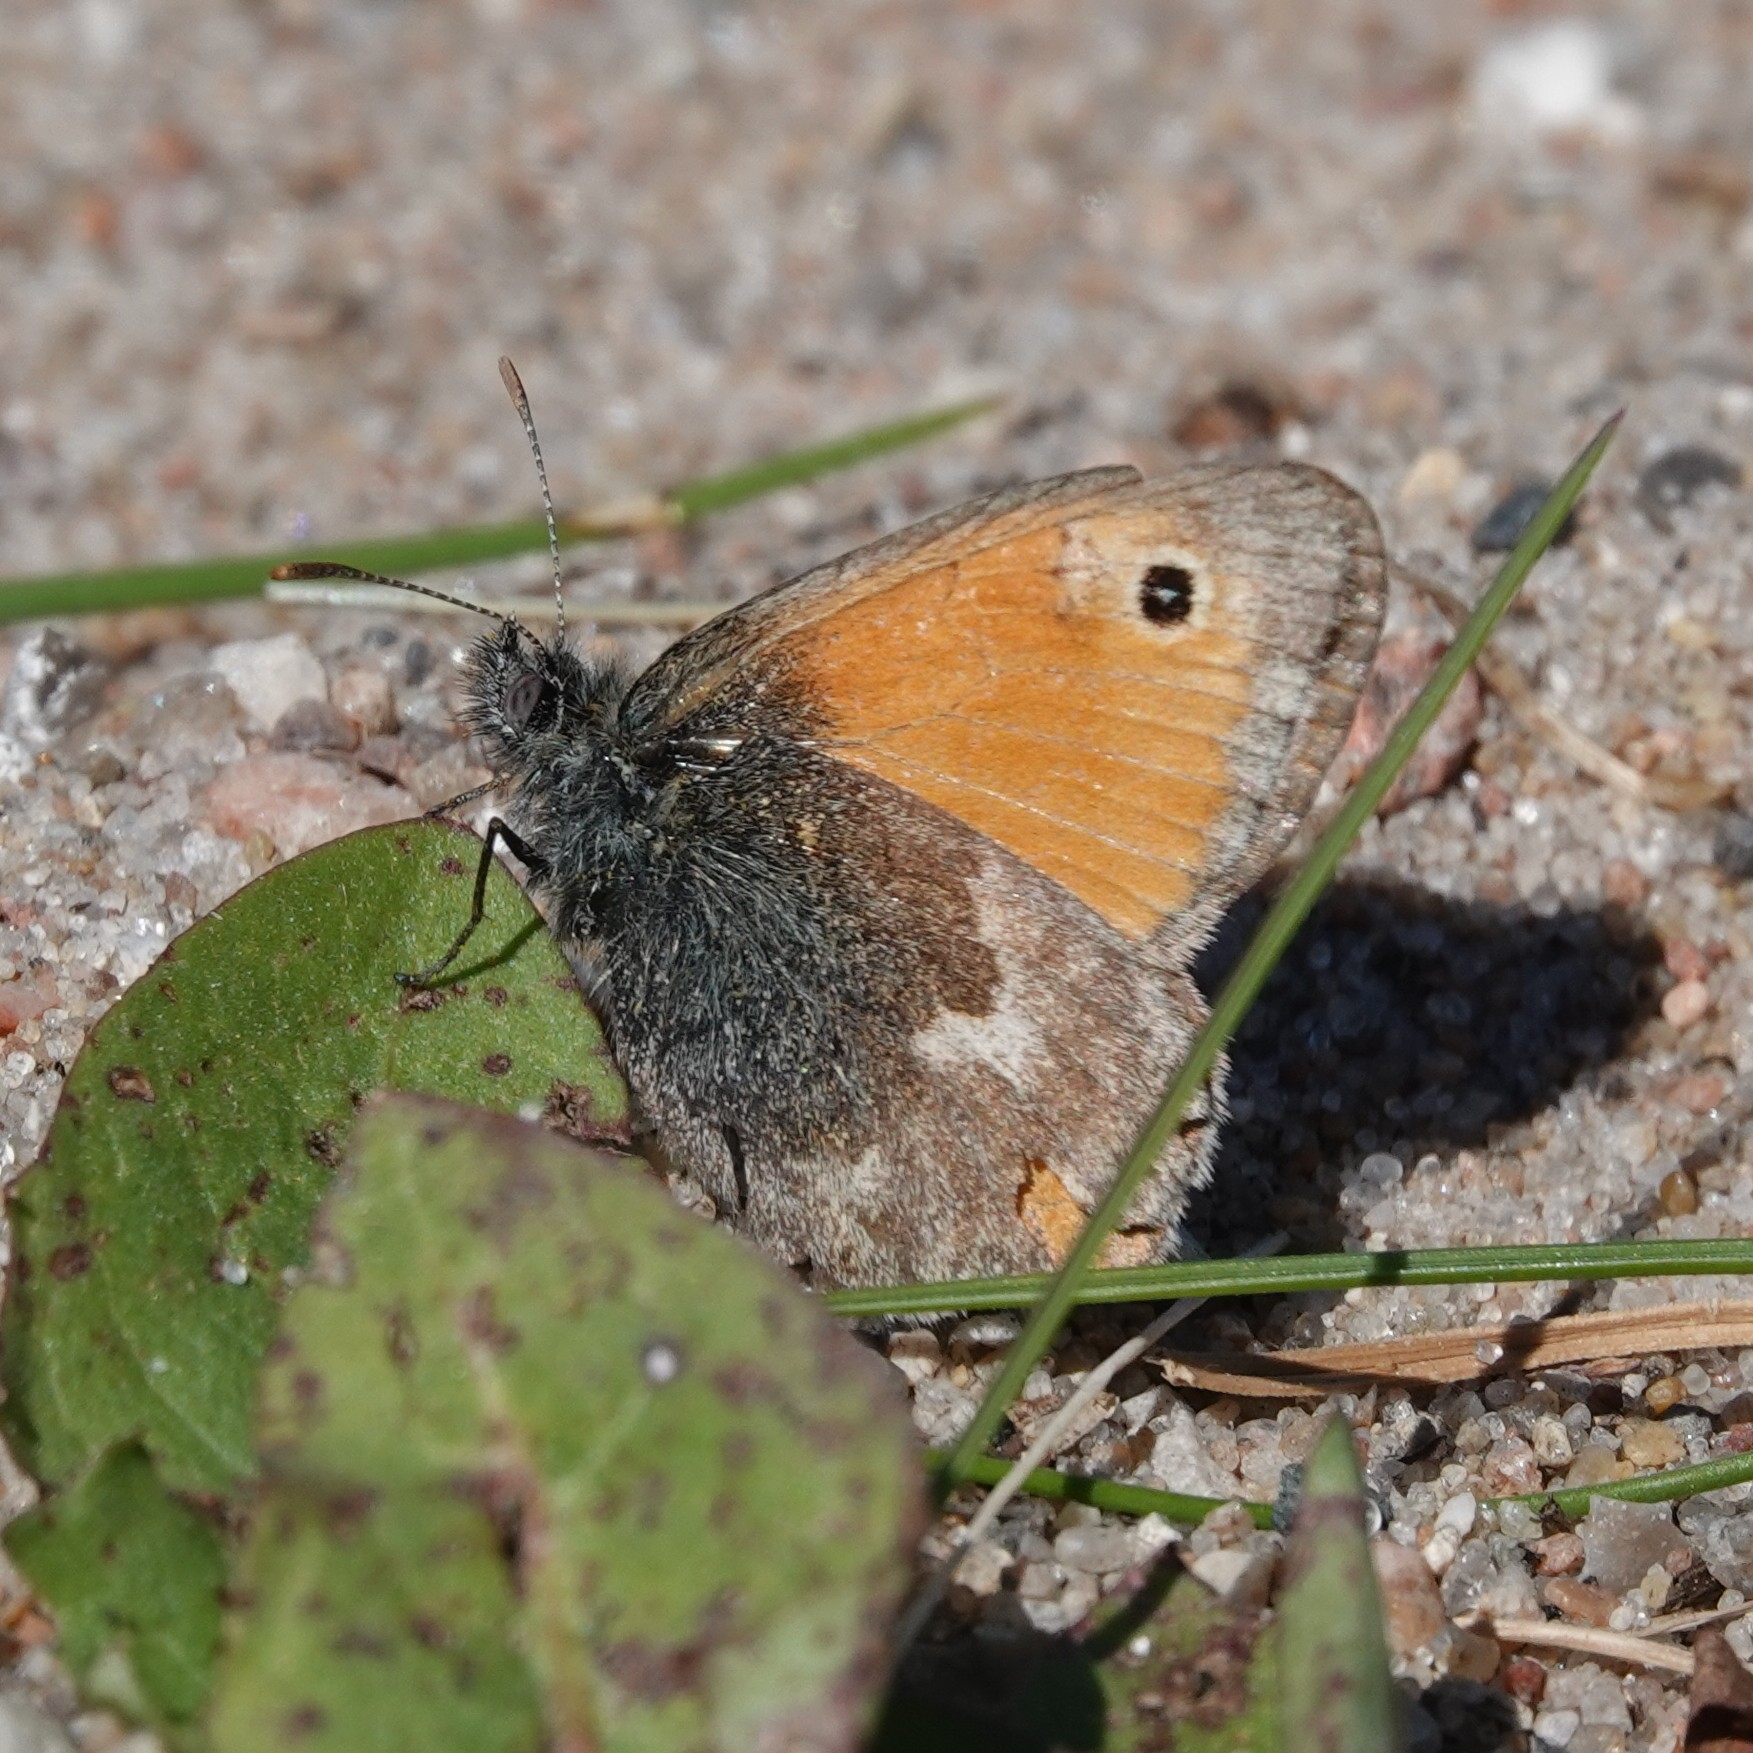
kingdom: Animalia
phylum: Arthropoda
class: Insecta
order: Lepidoptera
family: Nymphalidae
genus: Coenonympha
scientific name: Coenonympha pamphilus
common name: Small heath
